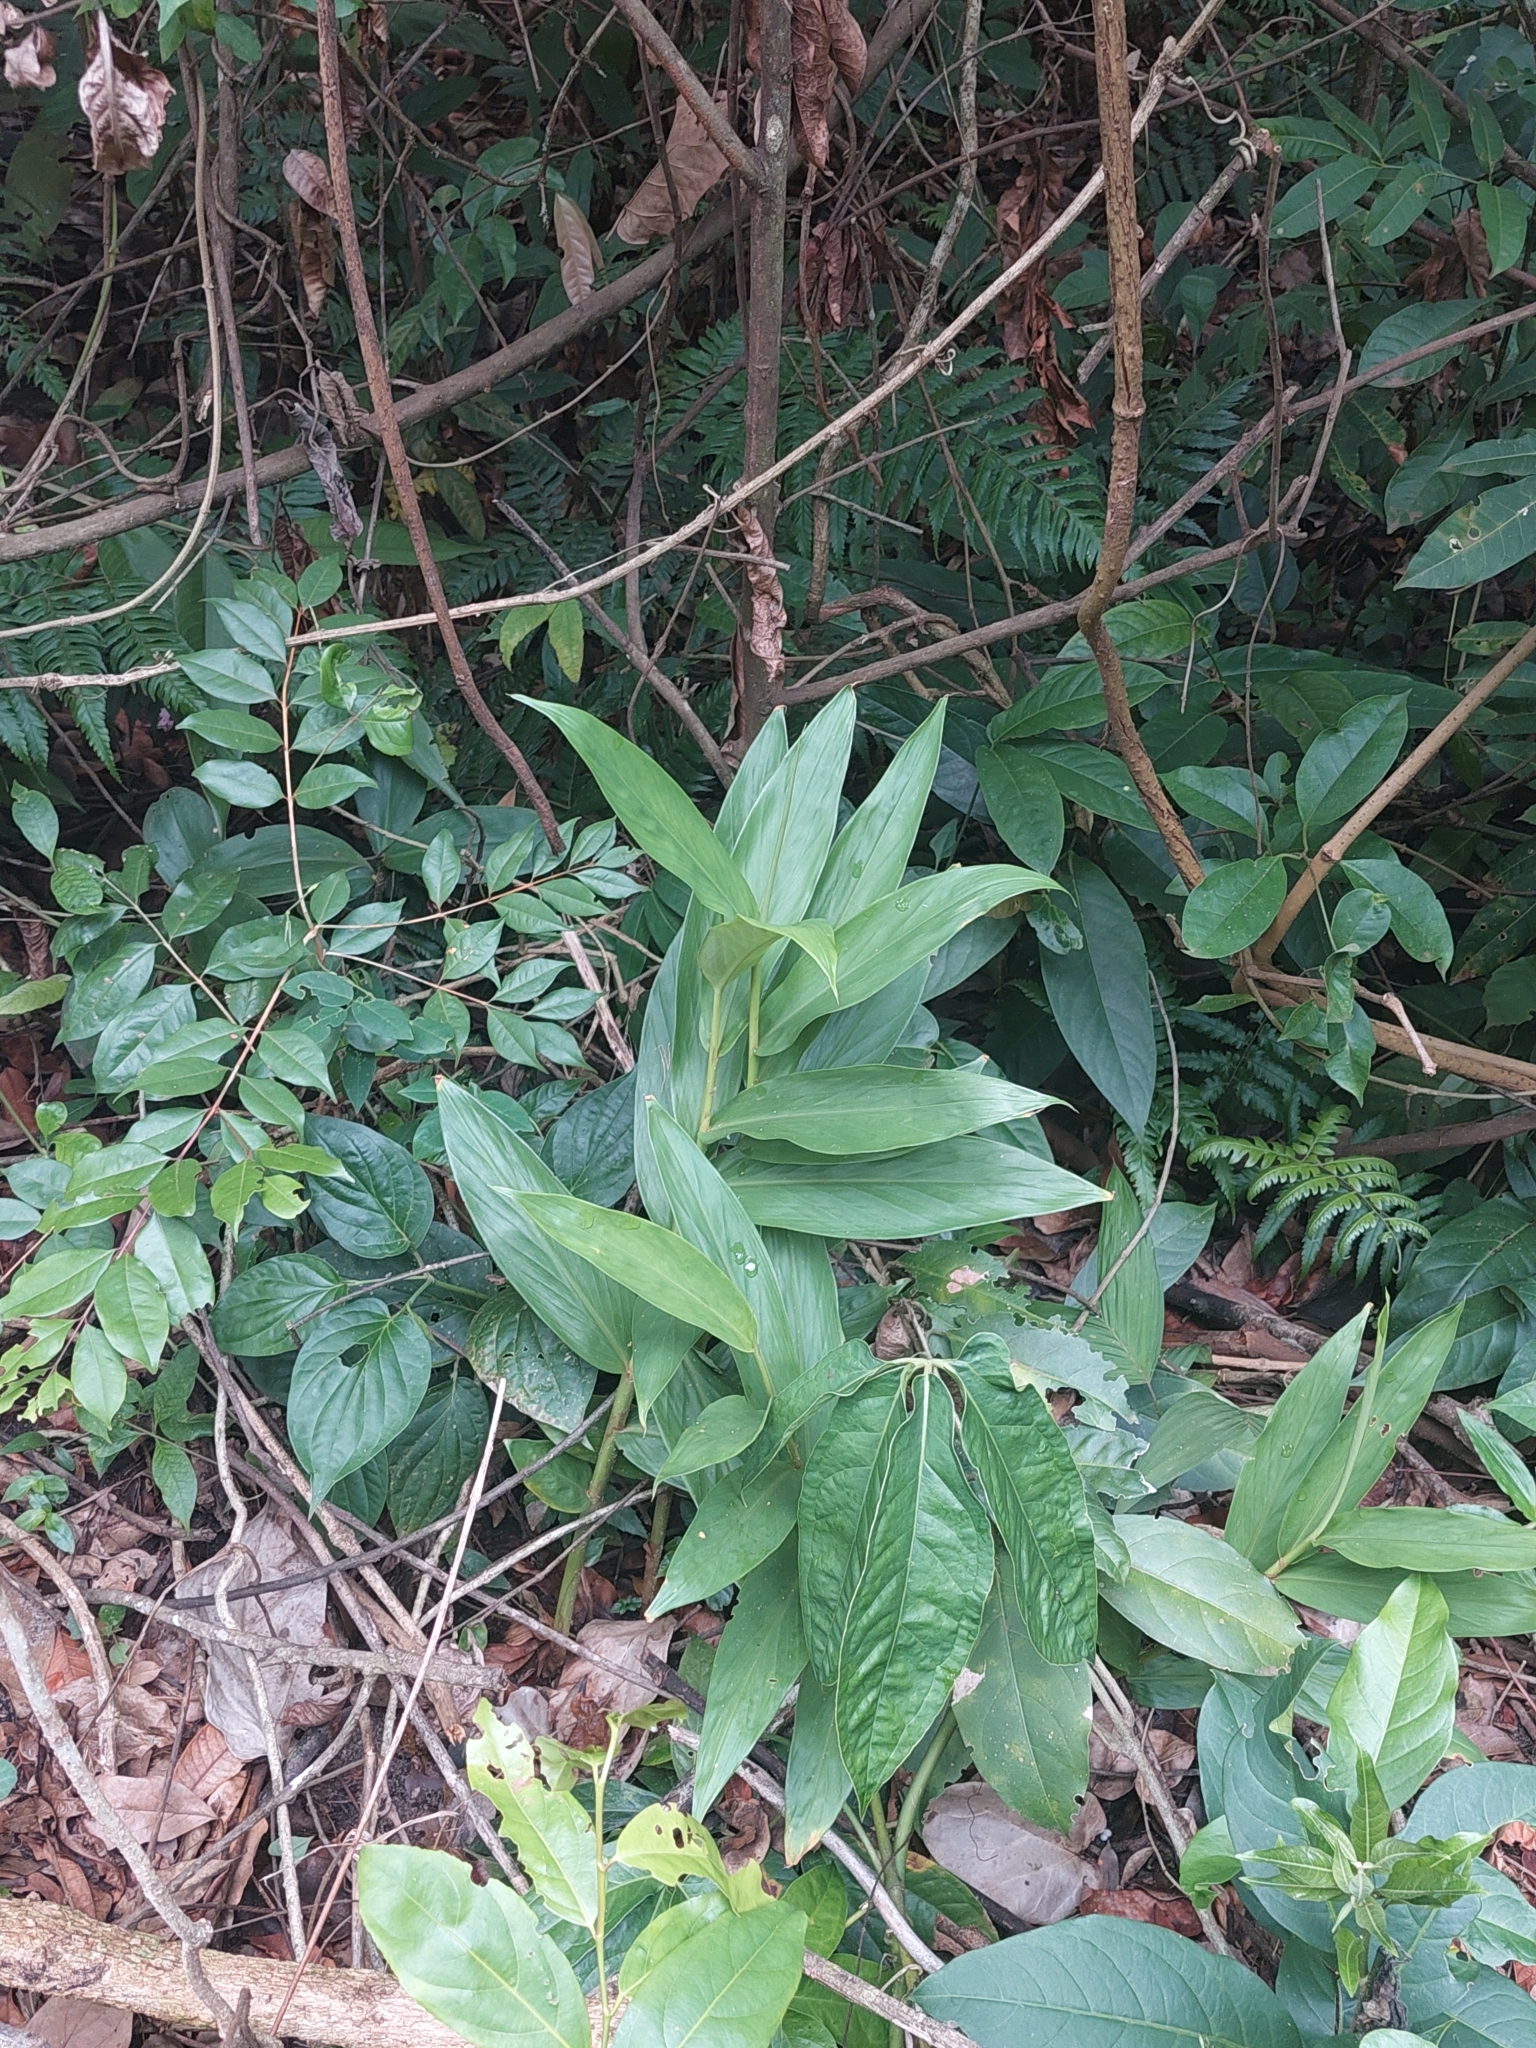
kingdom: Plantae
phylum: Tracheophyta
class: Liliopsida
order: Zingiberales
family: Zingiberaceae
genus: Hedychium
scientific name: Hedychium coronarium
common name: White garland-lily
